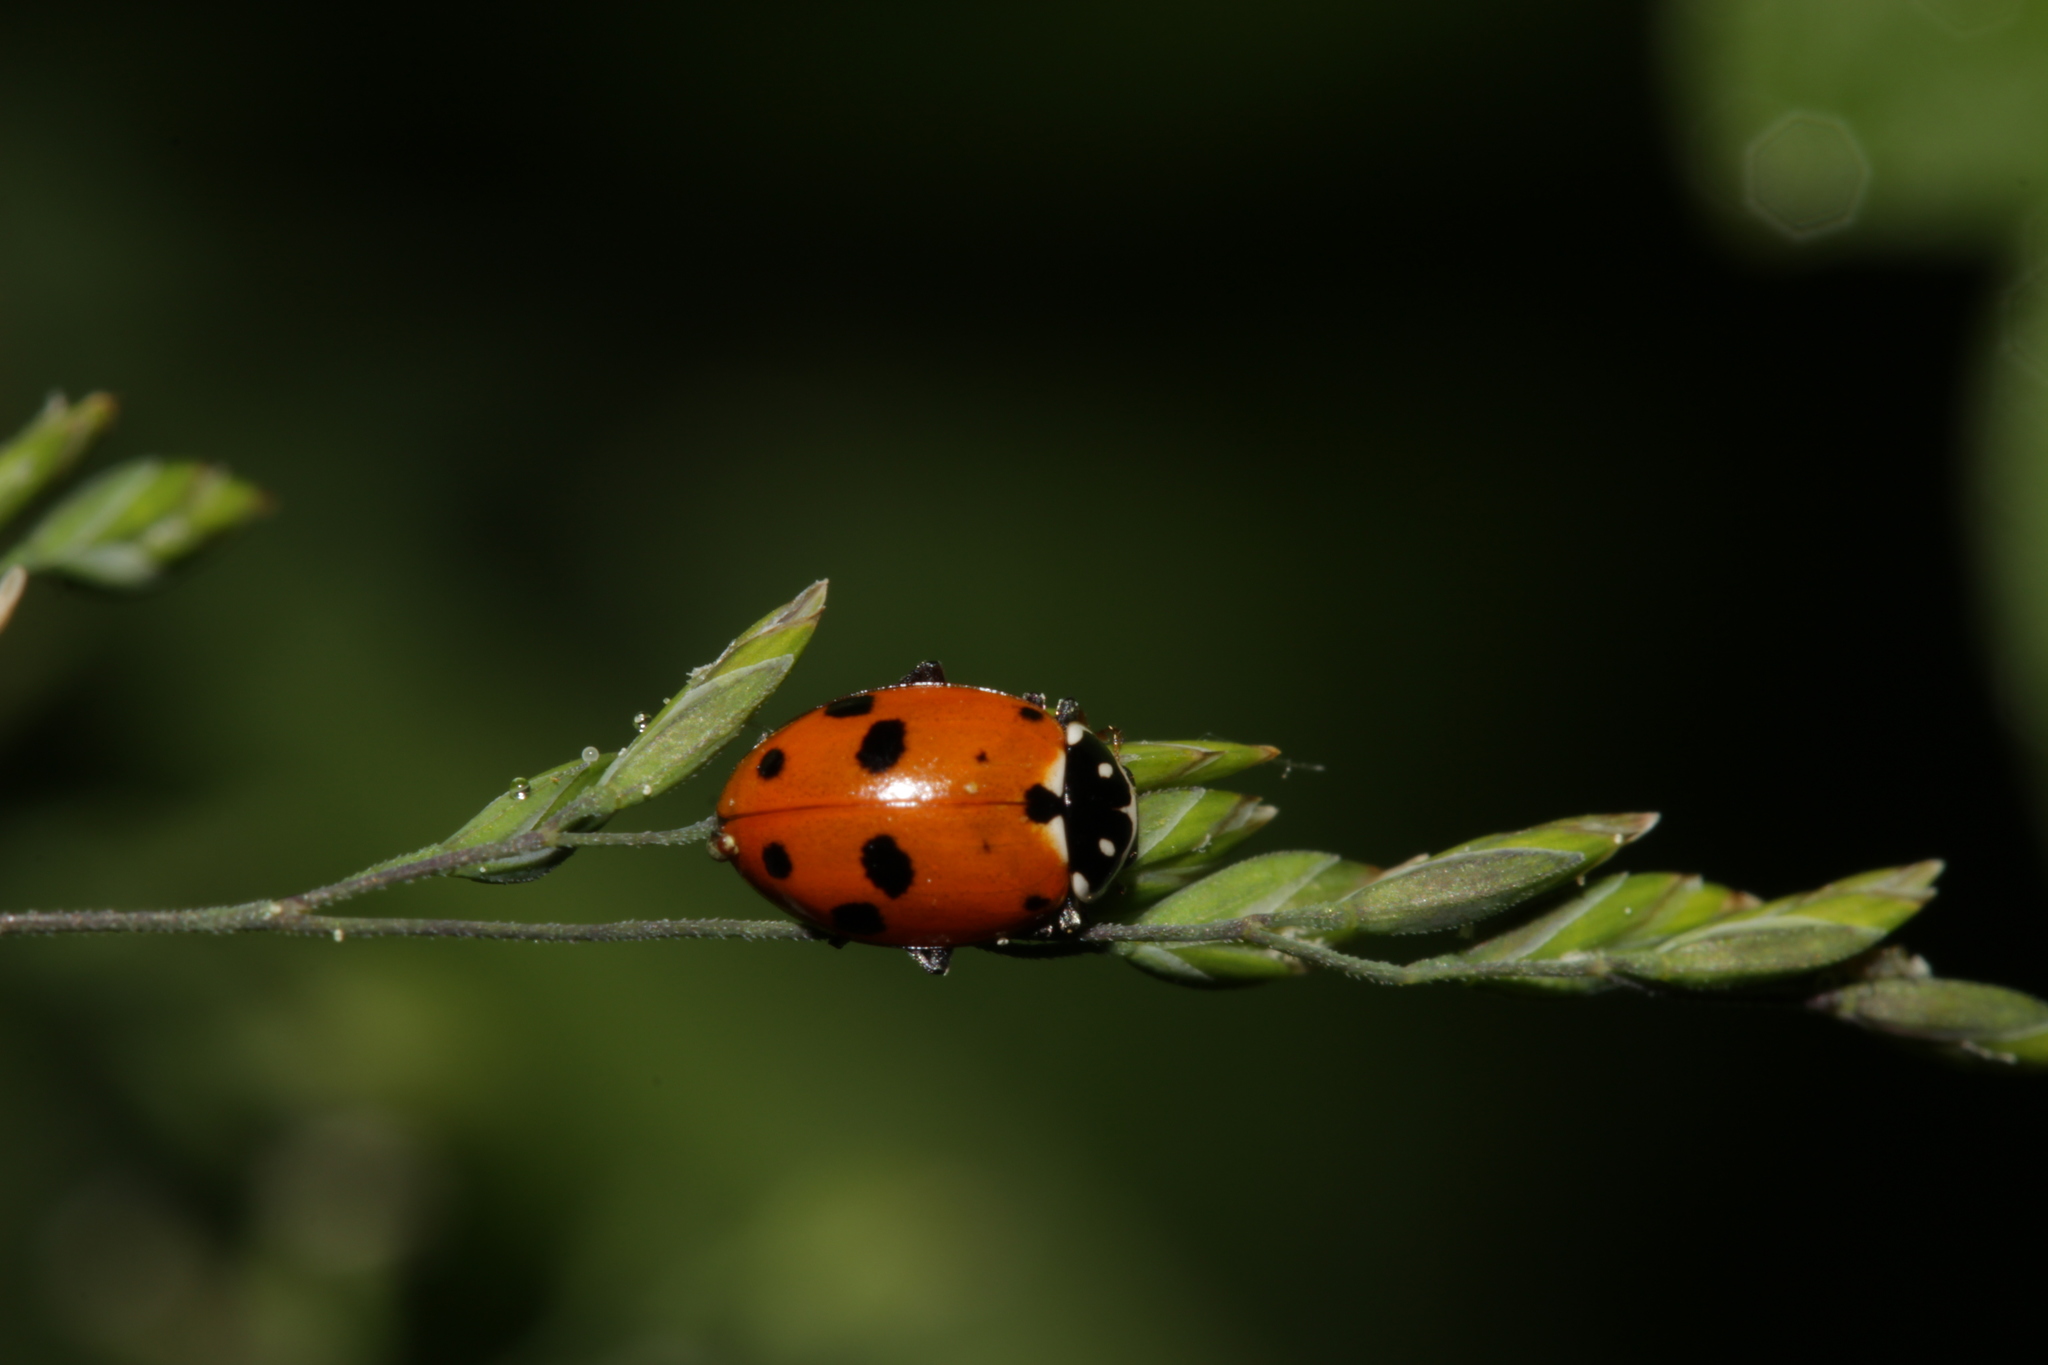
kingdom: Animalia
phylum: Arthropoda
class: Insecta
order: Coleoptera
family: Coccinellidae
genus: Hippodamia
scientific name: Hippodamia variegata
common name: Ladybird beetle
